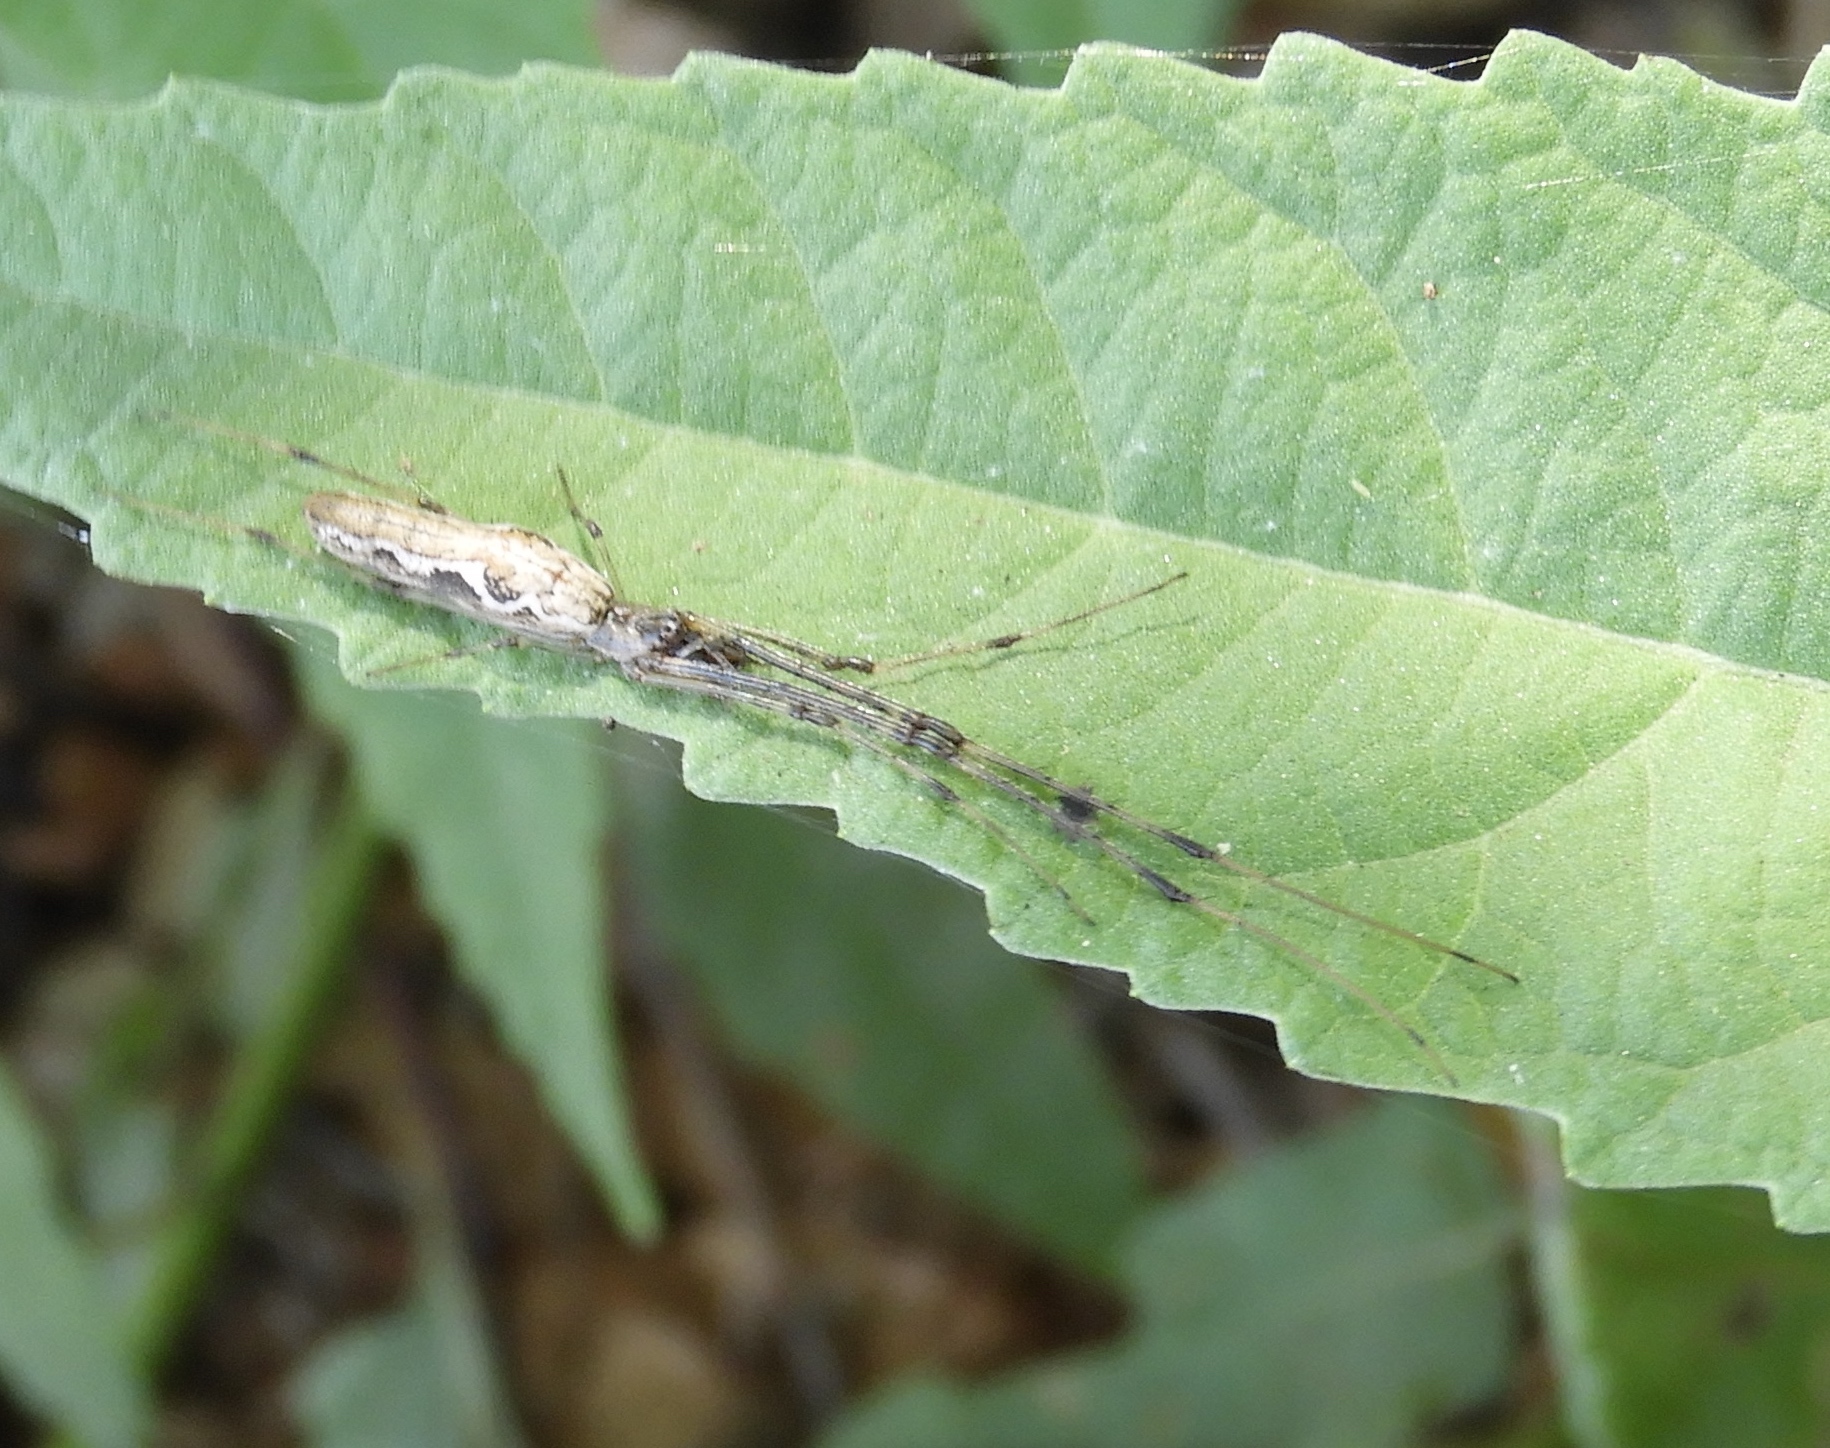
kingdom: Animalia
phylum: Arthropoda
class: Arachnida
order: Araneae
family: Tetragnathidae
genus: Tetragnatha
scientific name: Tetragnatha
